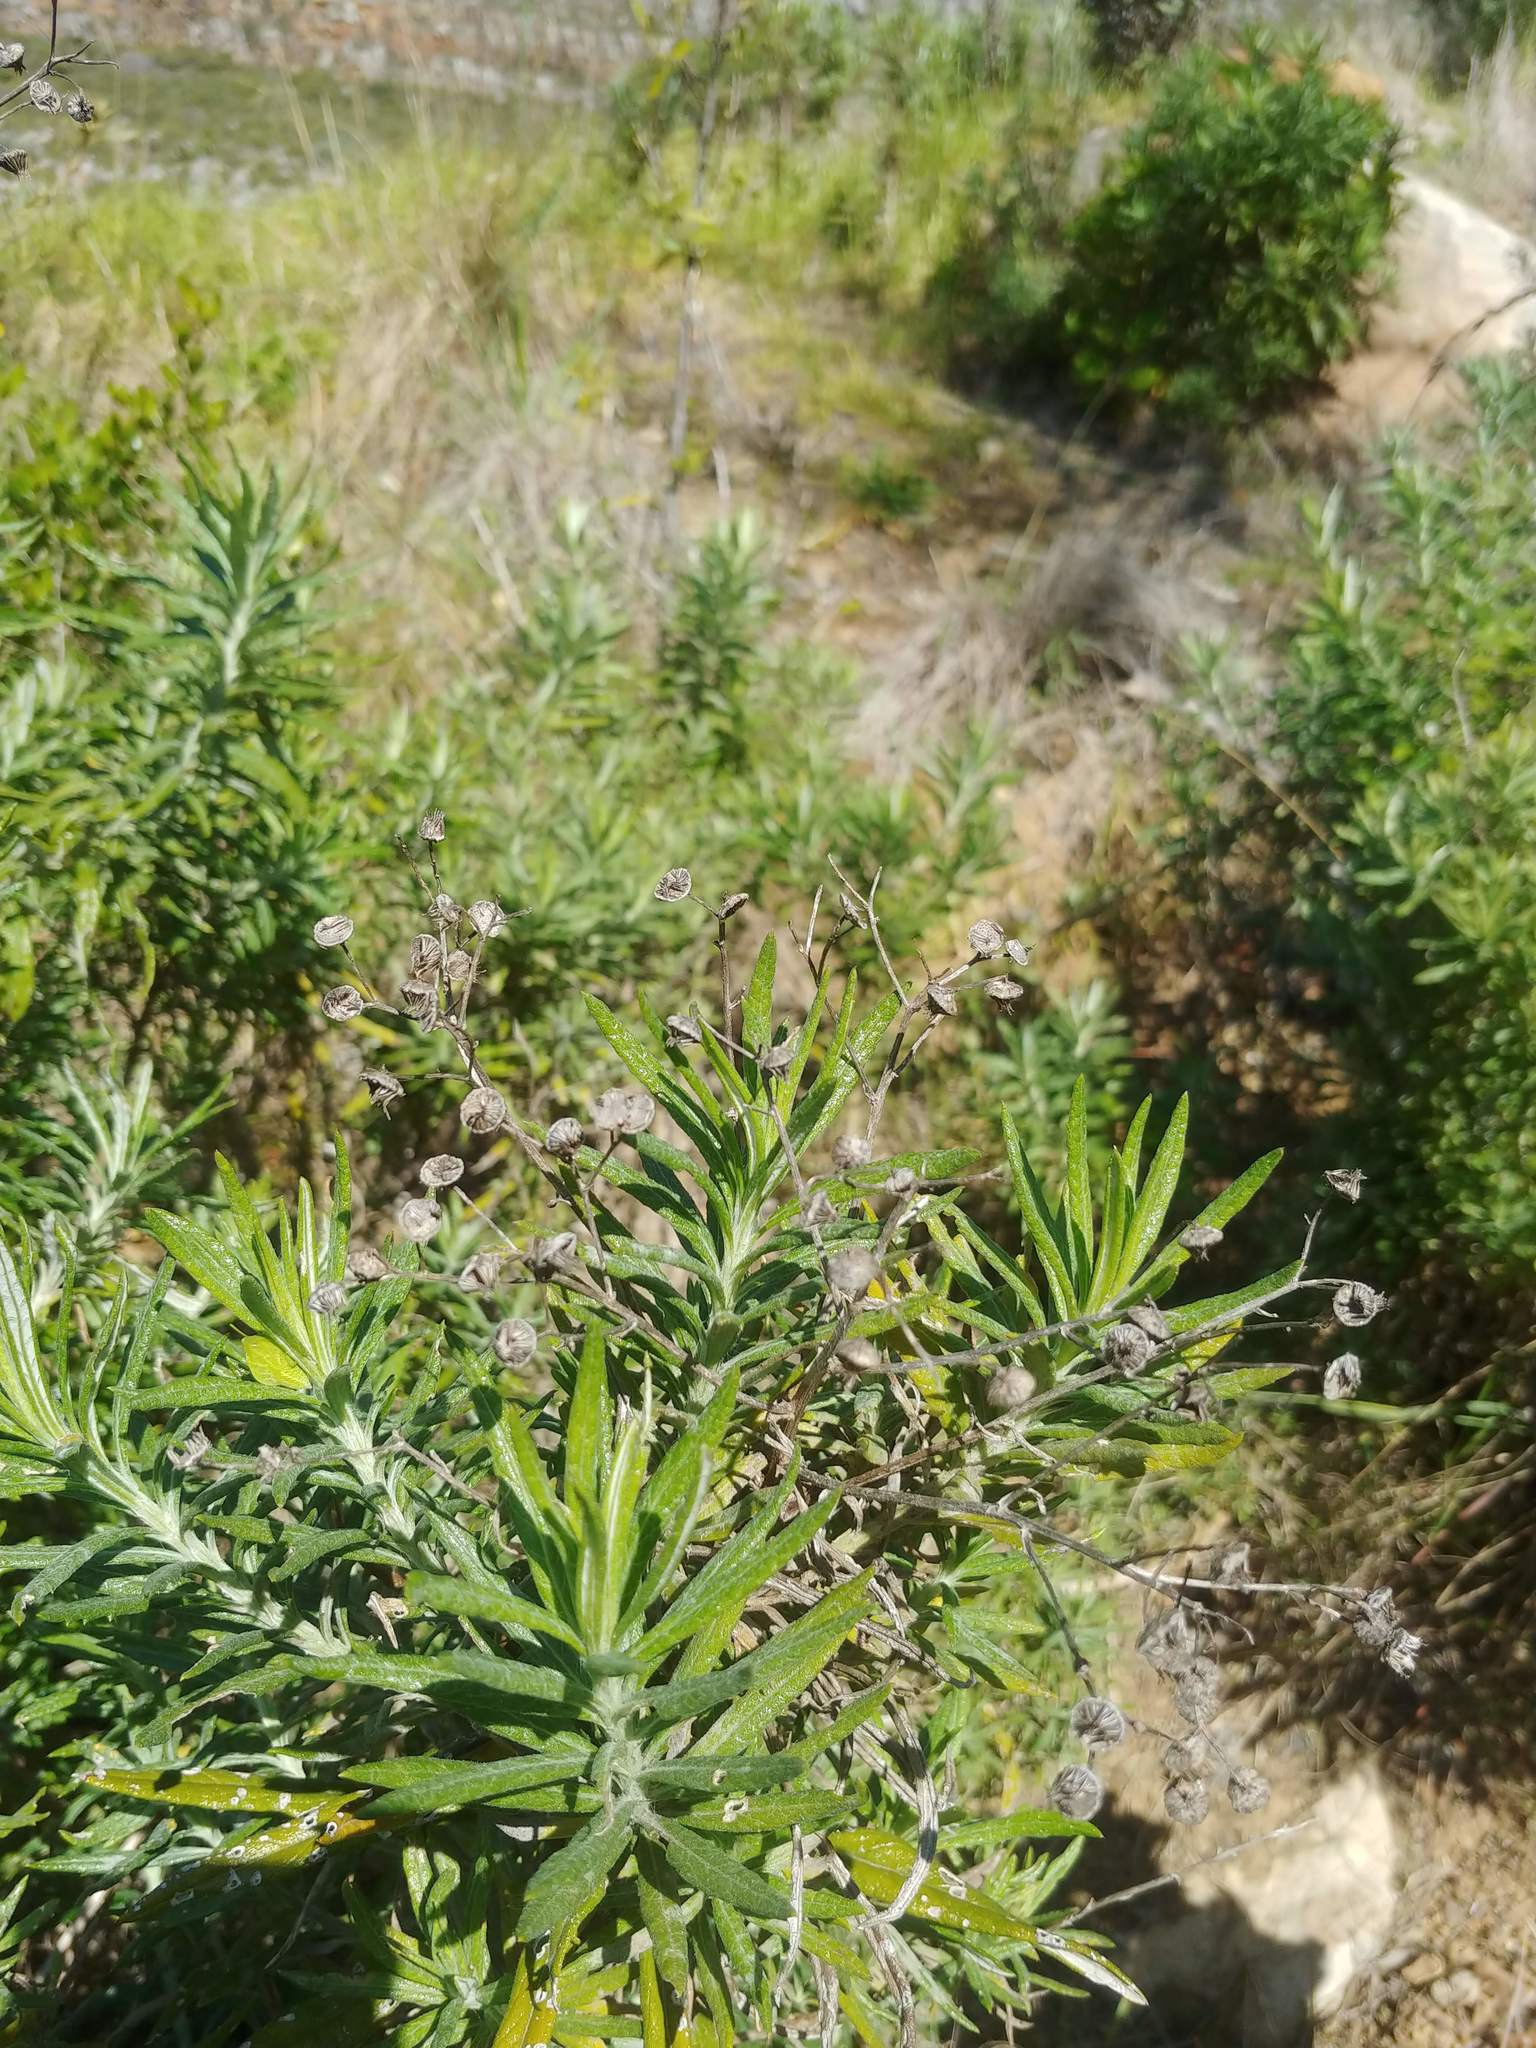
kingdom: Plantae
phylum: Tracheophyta
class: Magnoliopsida
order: Asterales
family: Asteraceae
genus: Senecio
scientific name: Senecio pterophorus
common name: Shoddy ragwort
